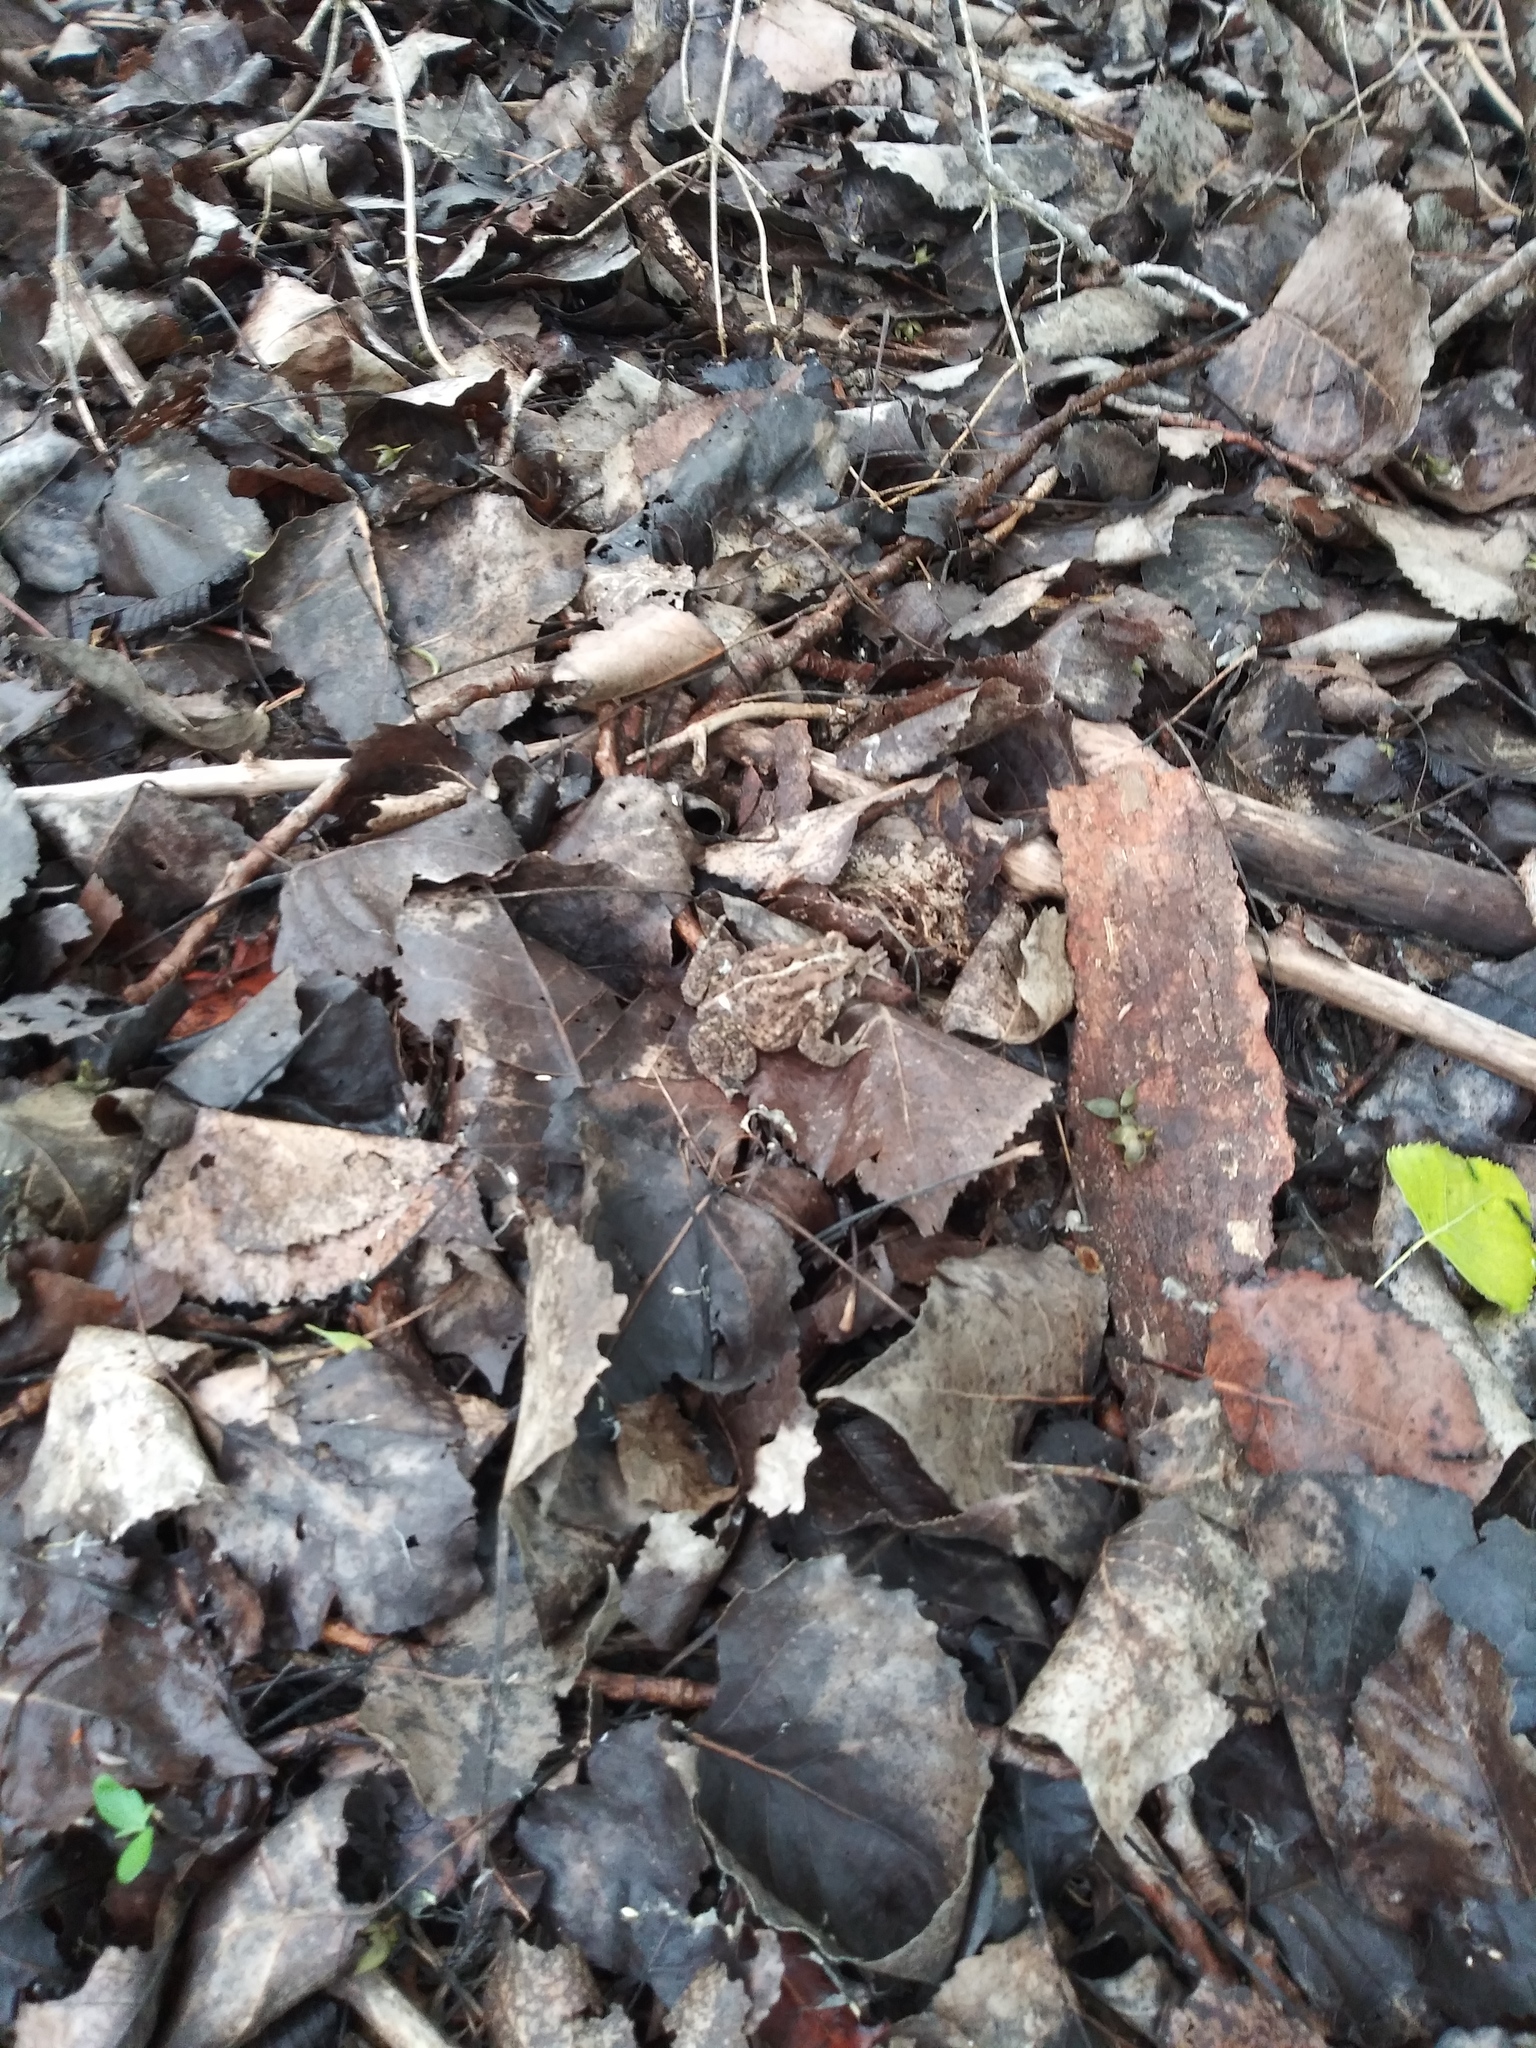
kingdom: Animalia
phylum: Chordata
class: Amphibia
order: Anura
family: Bufonidae
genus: Anaxyrus
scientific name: Anaxyrus americanus
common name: American toad
